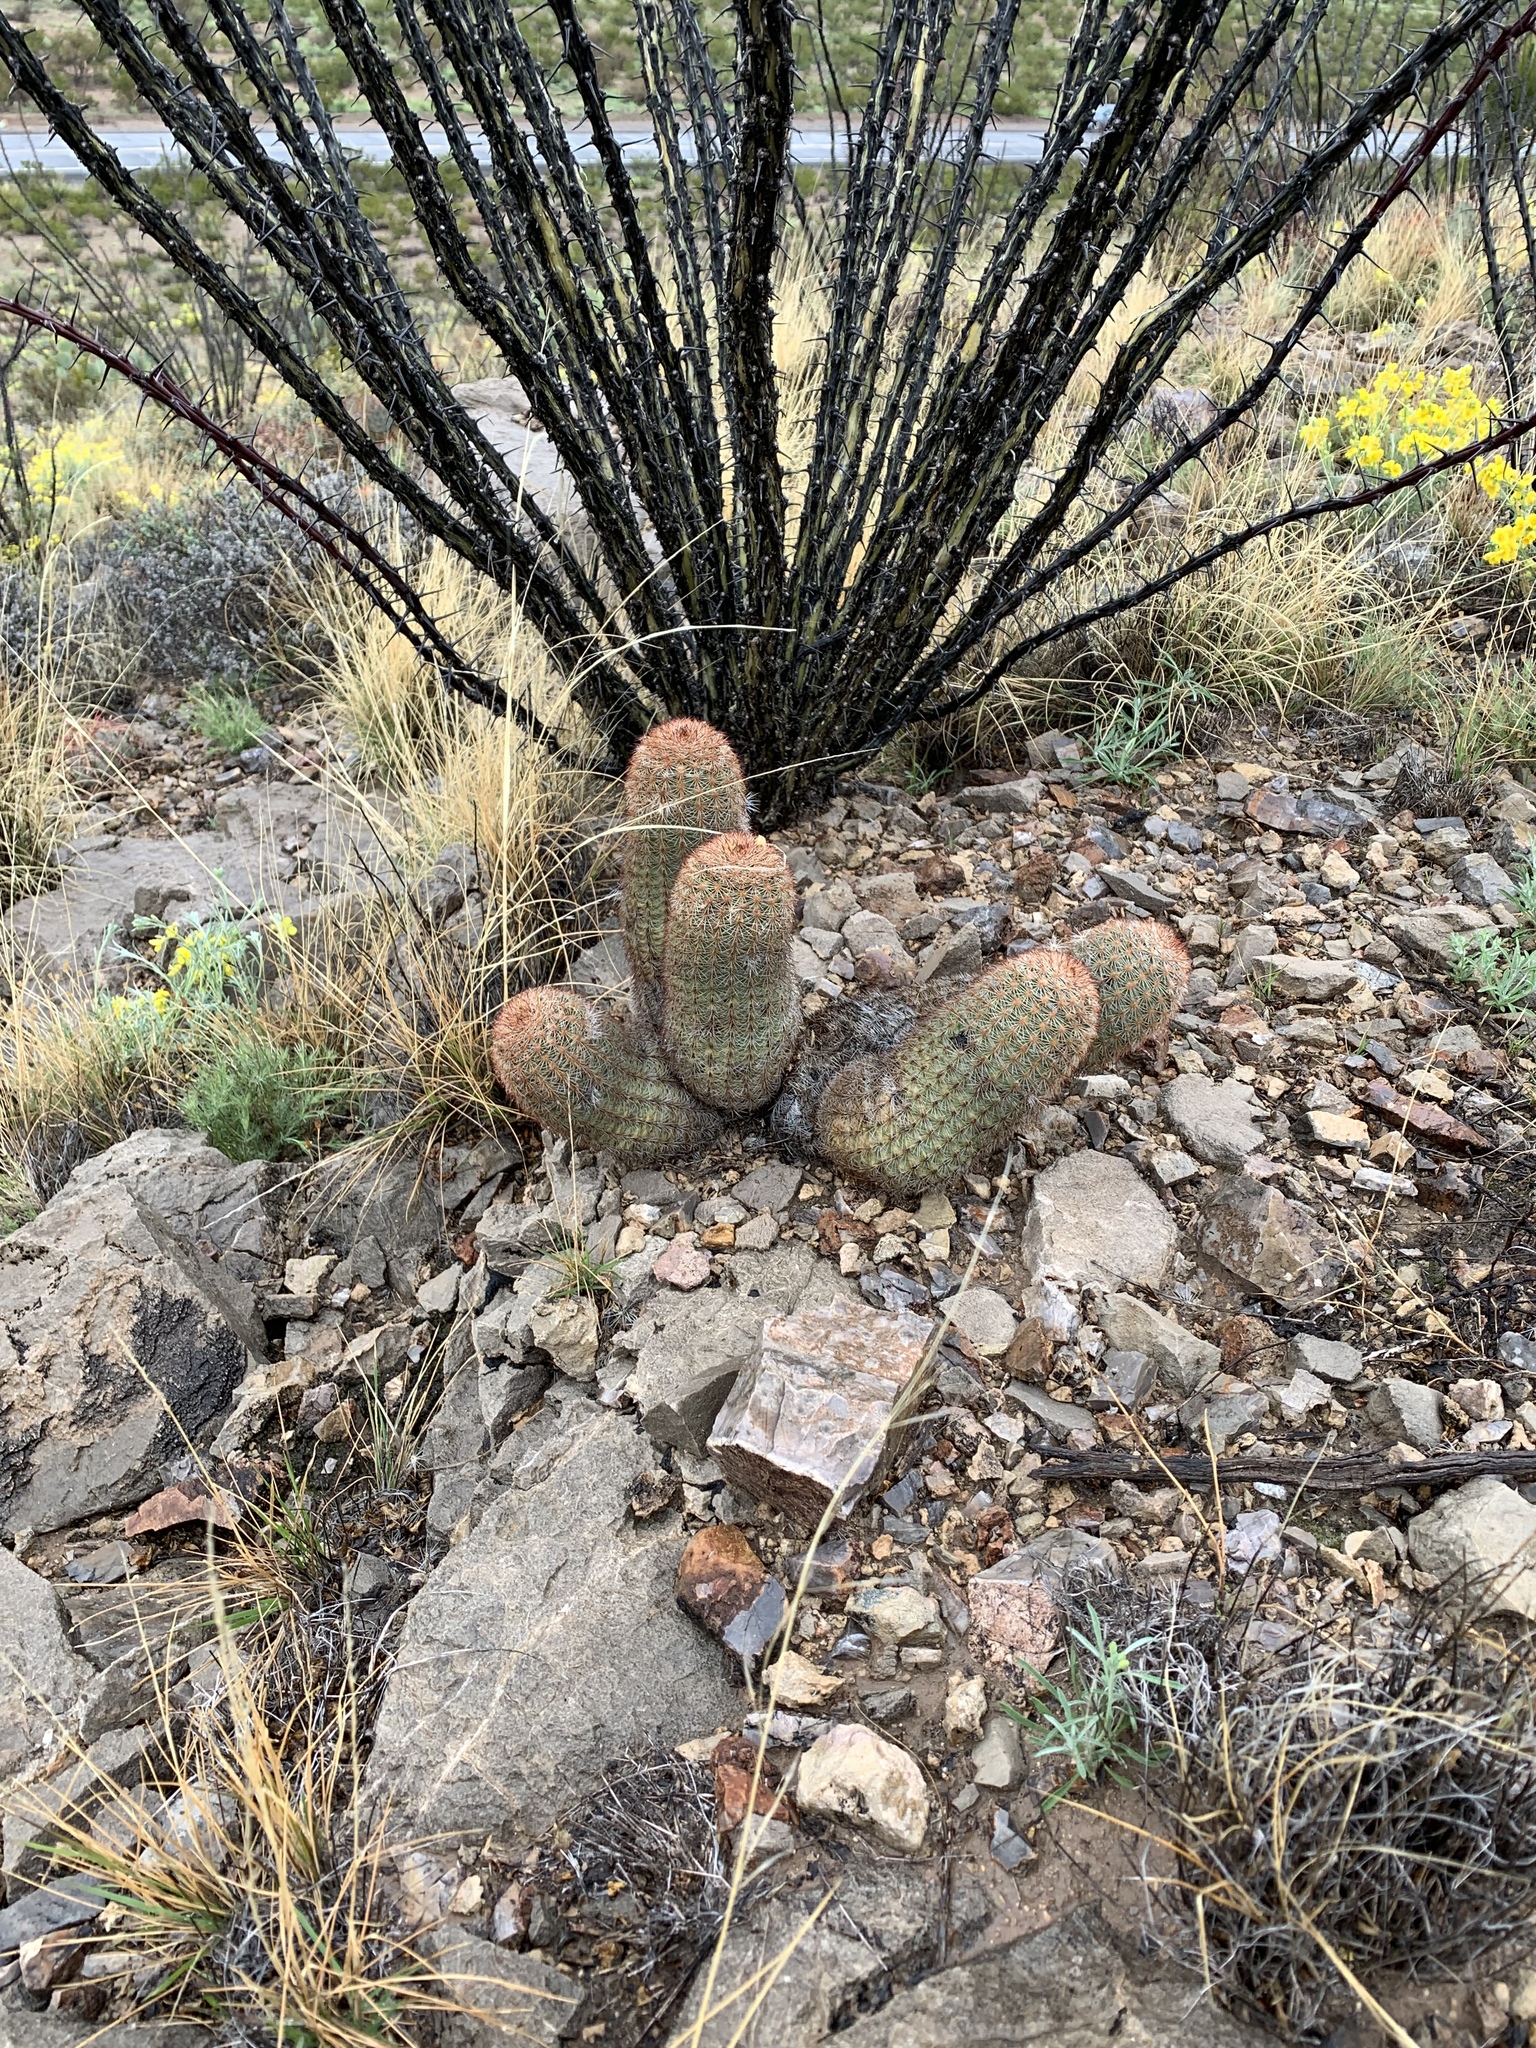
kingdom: Plantae
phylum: Tracheophyta
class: Magnoliopsida
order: Caryophyllales
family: Cactaceae
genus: Echinocereus
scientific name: Echinocereus dasyacanthus
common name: Spiny hedgehog cactus
